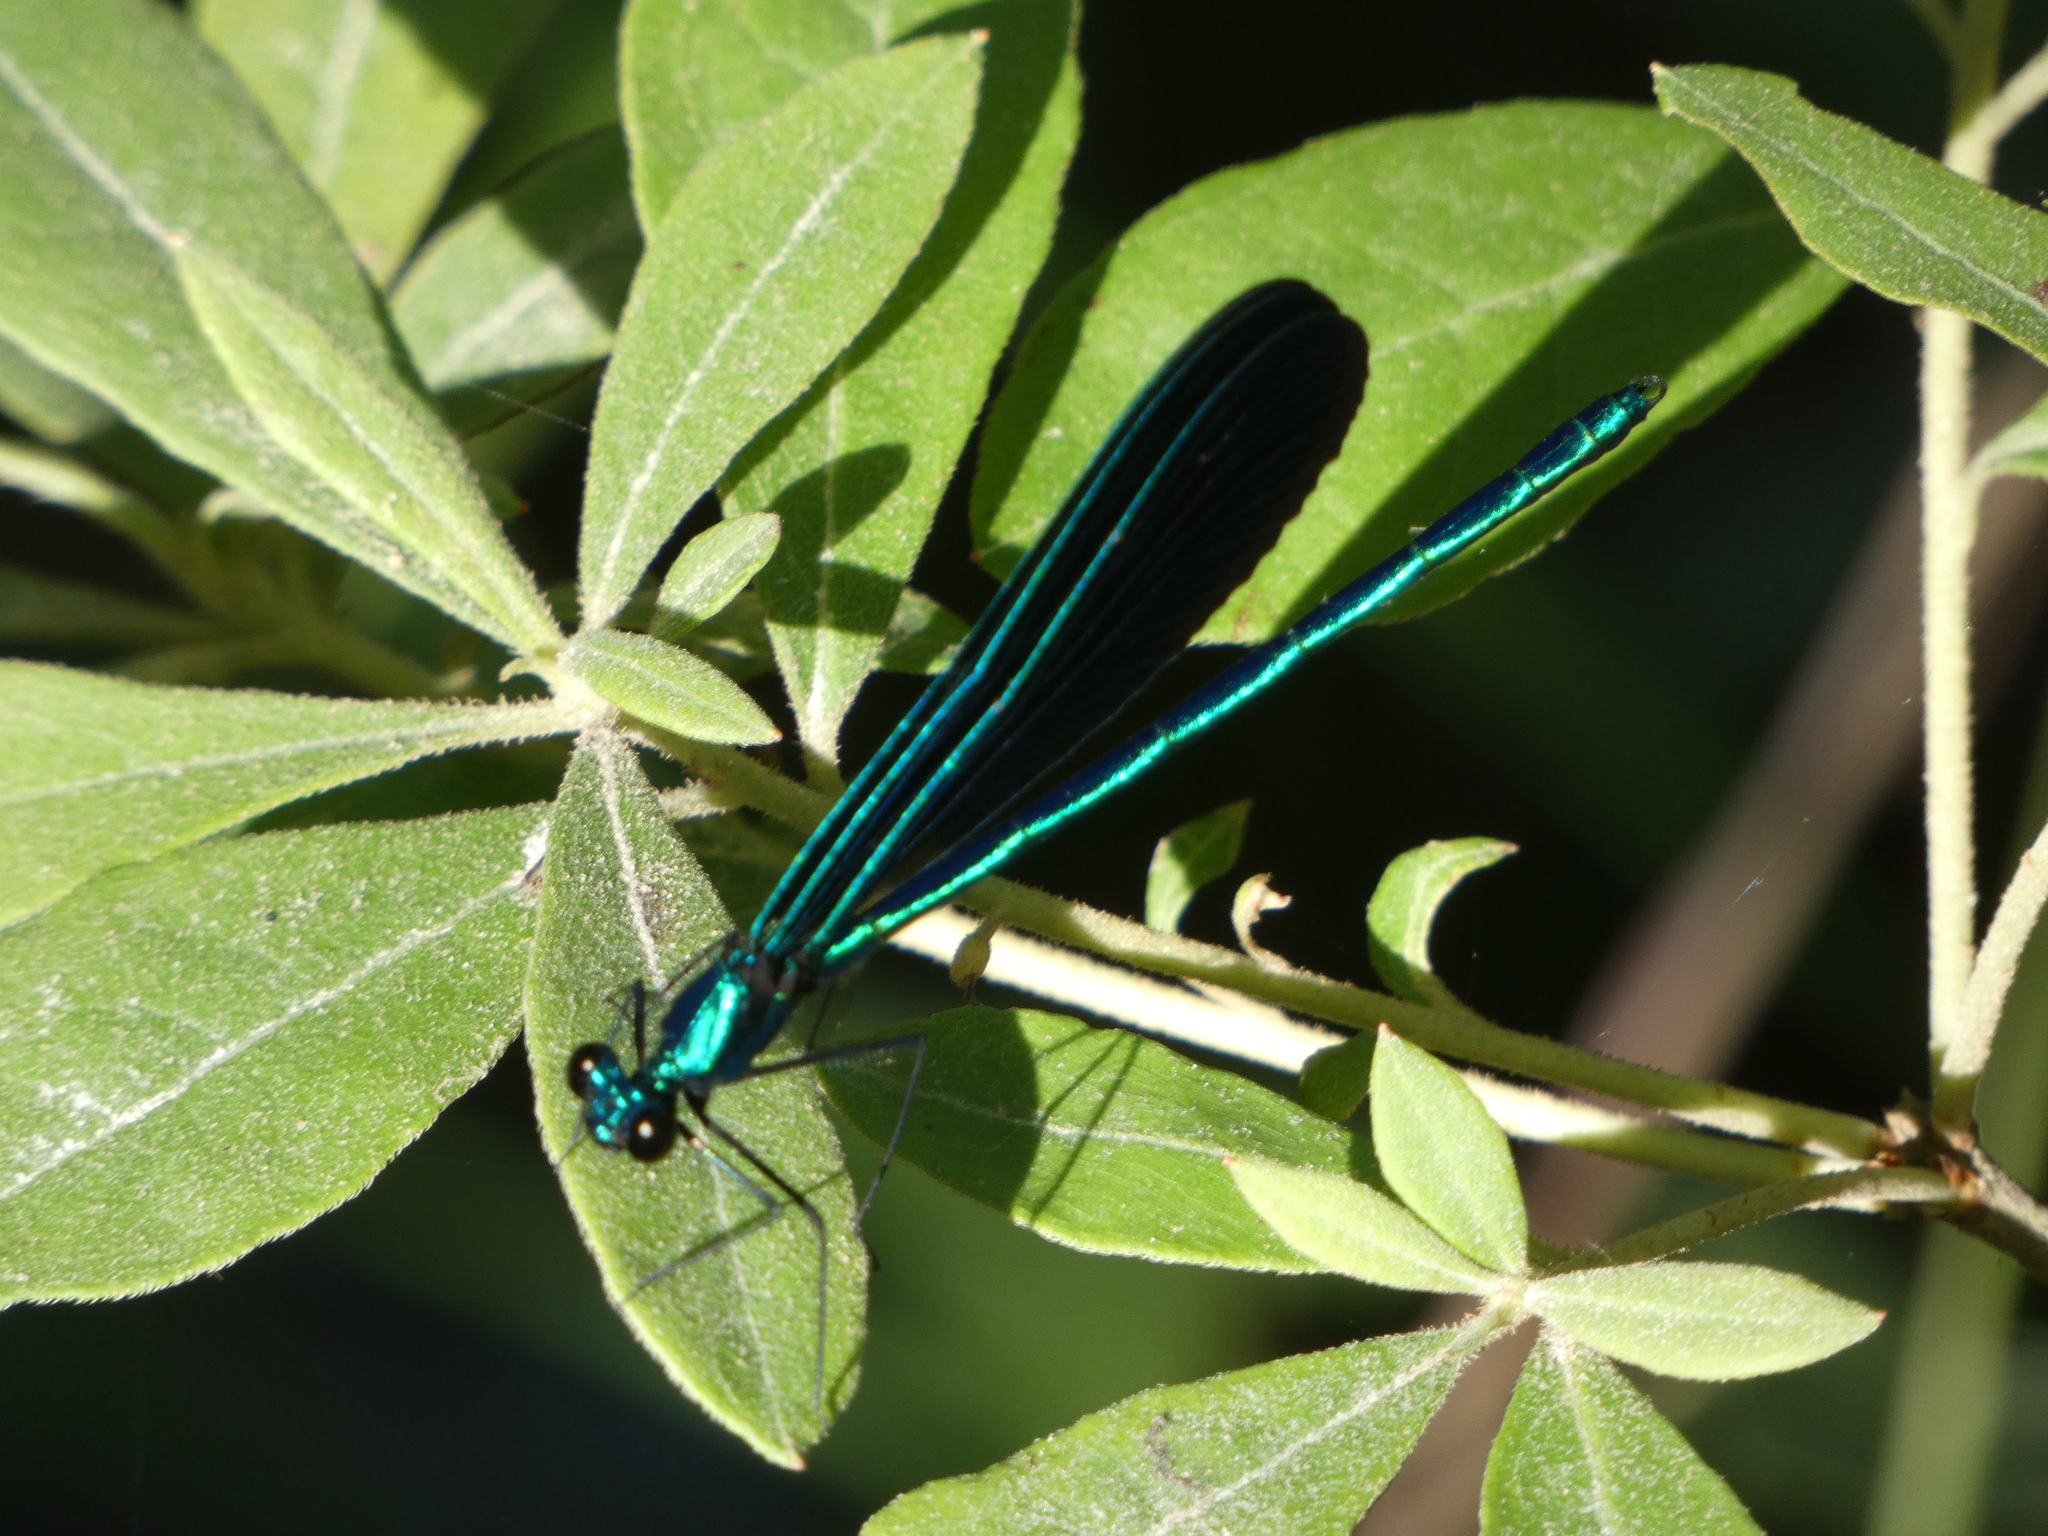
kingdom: Animalia
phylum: Arthropoda
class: Insecta
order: Odonata
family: Calopterygidae
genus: Calopteryx
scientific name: Calopteryx maculata
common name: Ebony jewelwing
